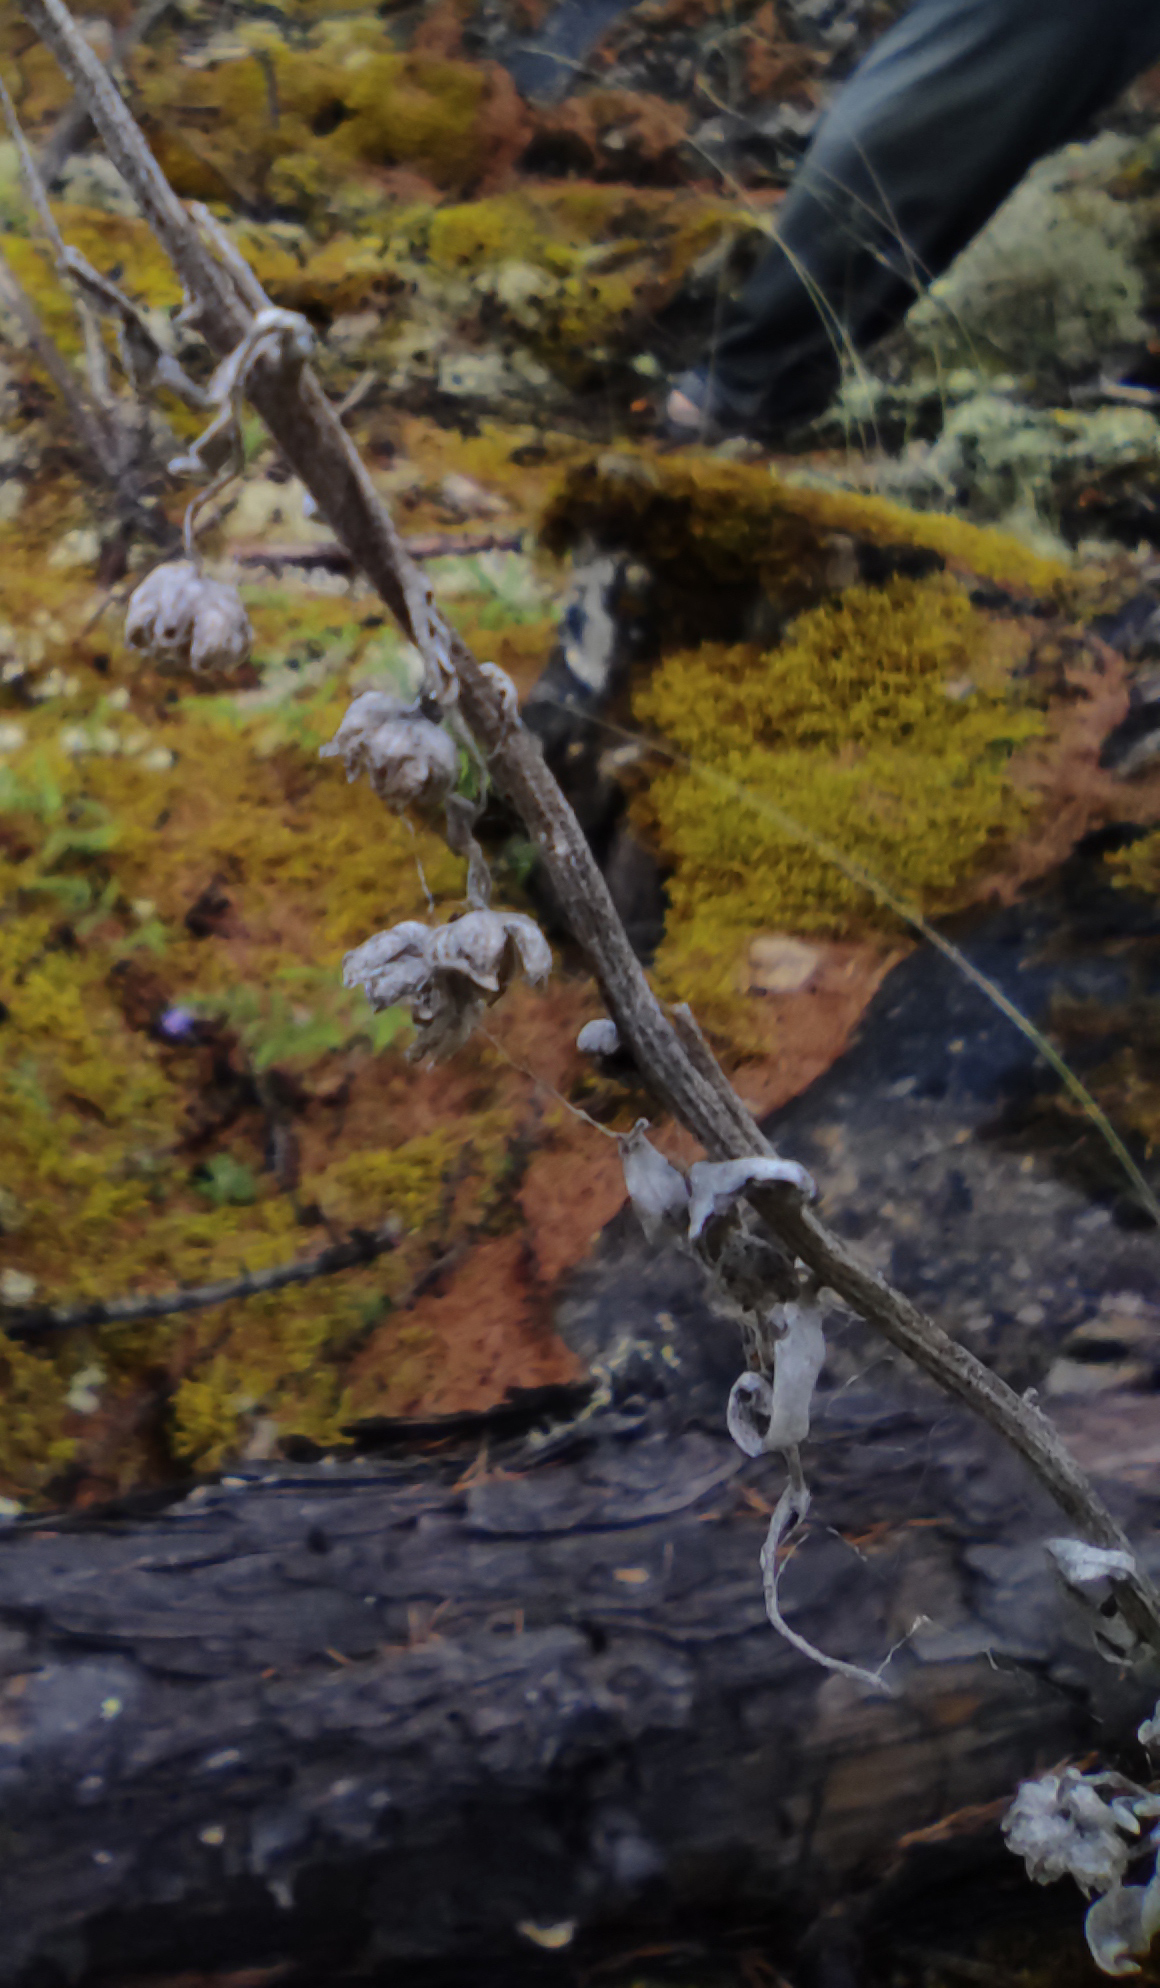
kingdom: Plantae
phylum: Tracheophyta
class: Magnoliopsida
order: Asterales
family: Asteraceae
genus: Artemisia
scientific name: Artemisia lagocephala
